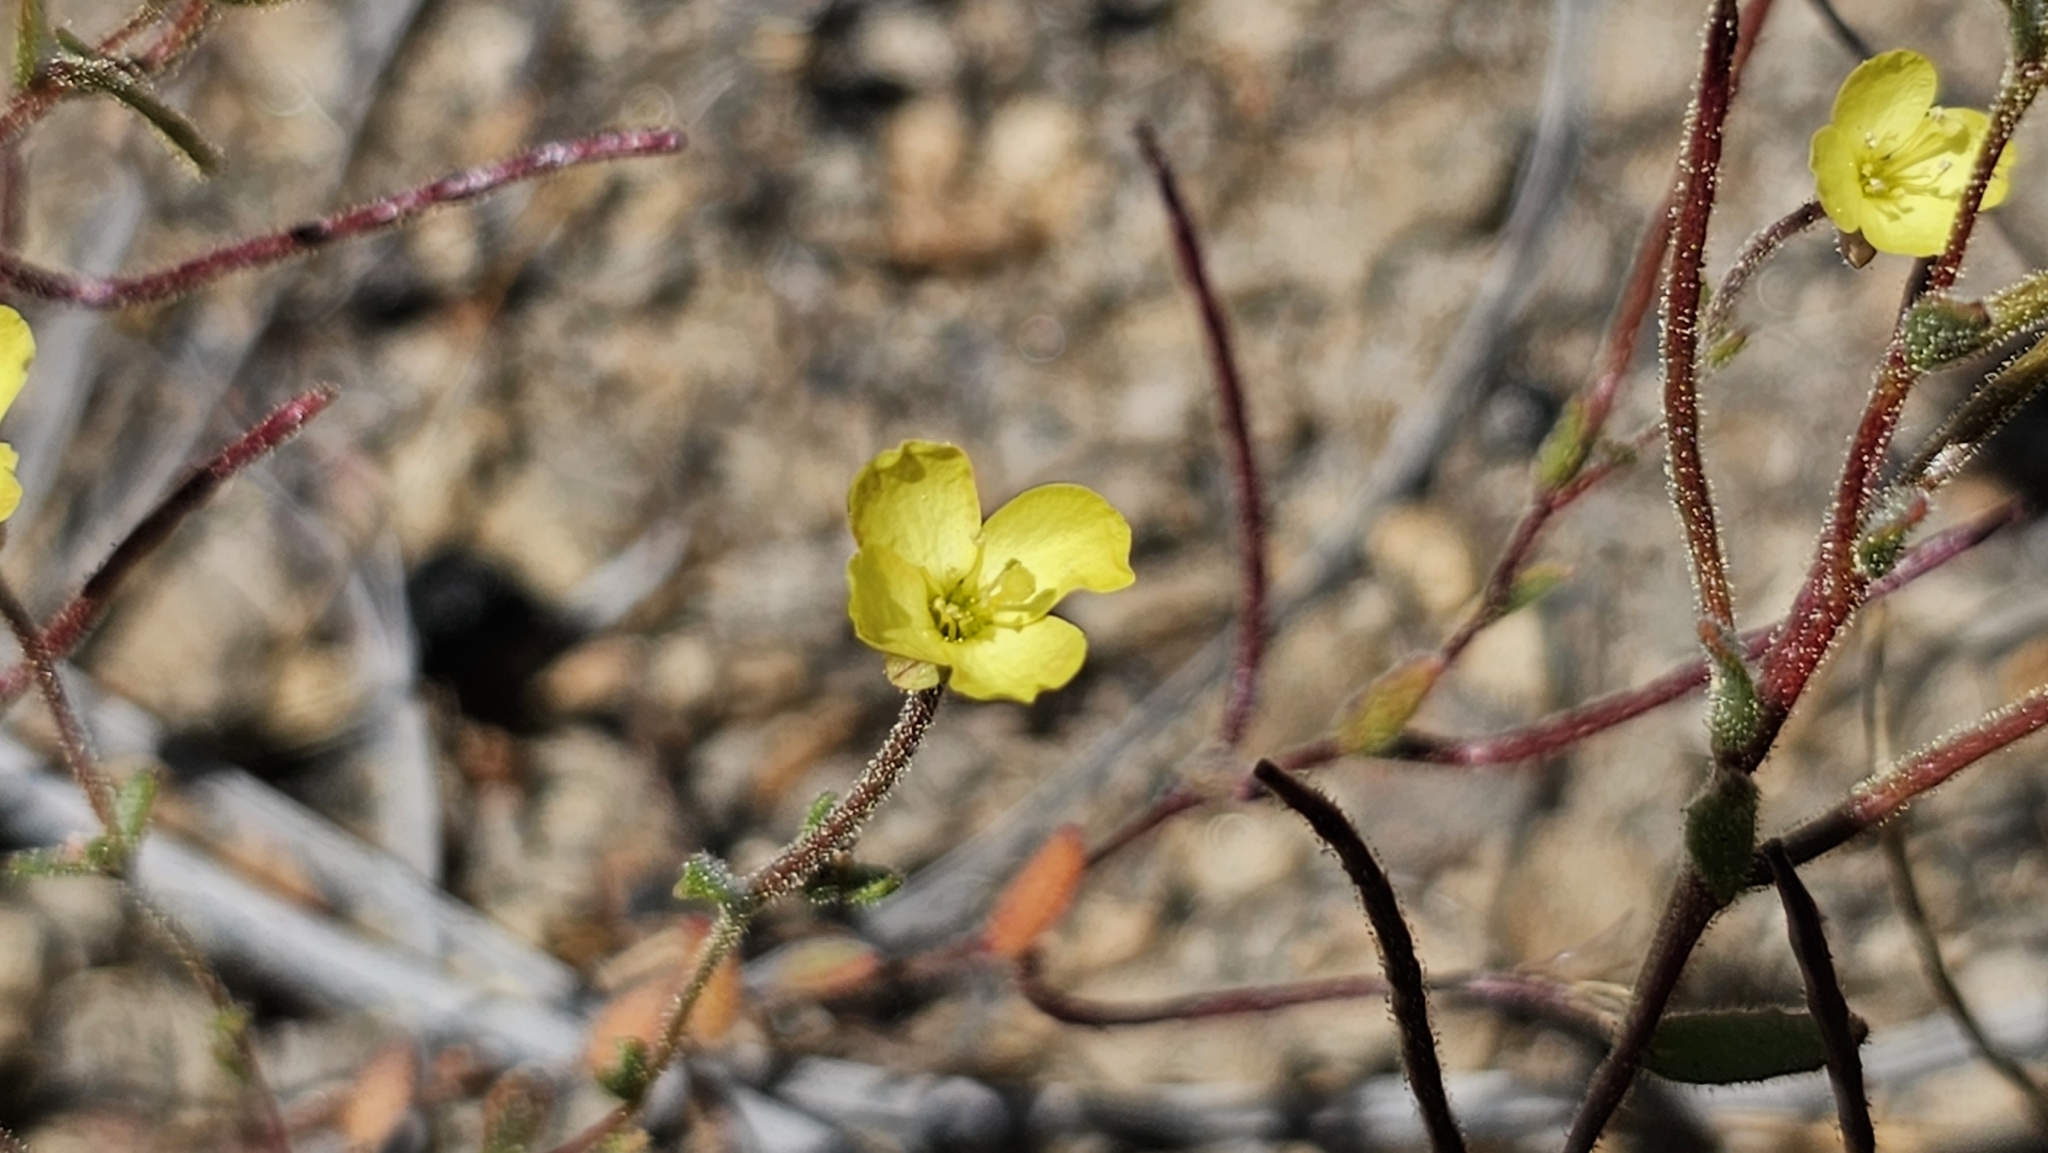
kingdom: Plantae
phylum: Tracheophyta
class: Magnoliopsida
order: Myrtales
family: Onagraceae
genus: Camissonia
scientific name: Camissonia sierrae
